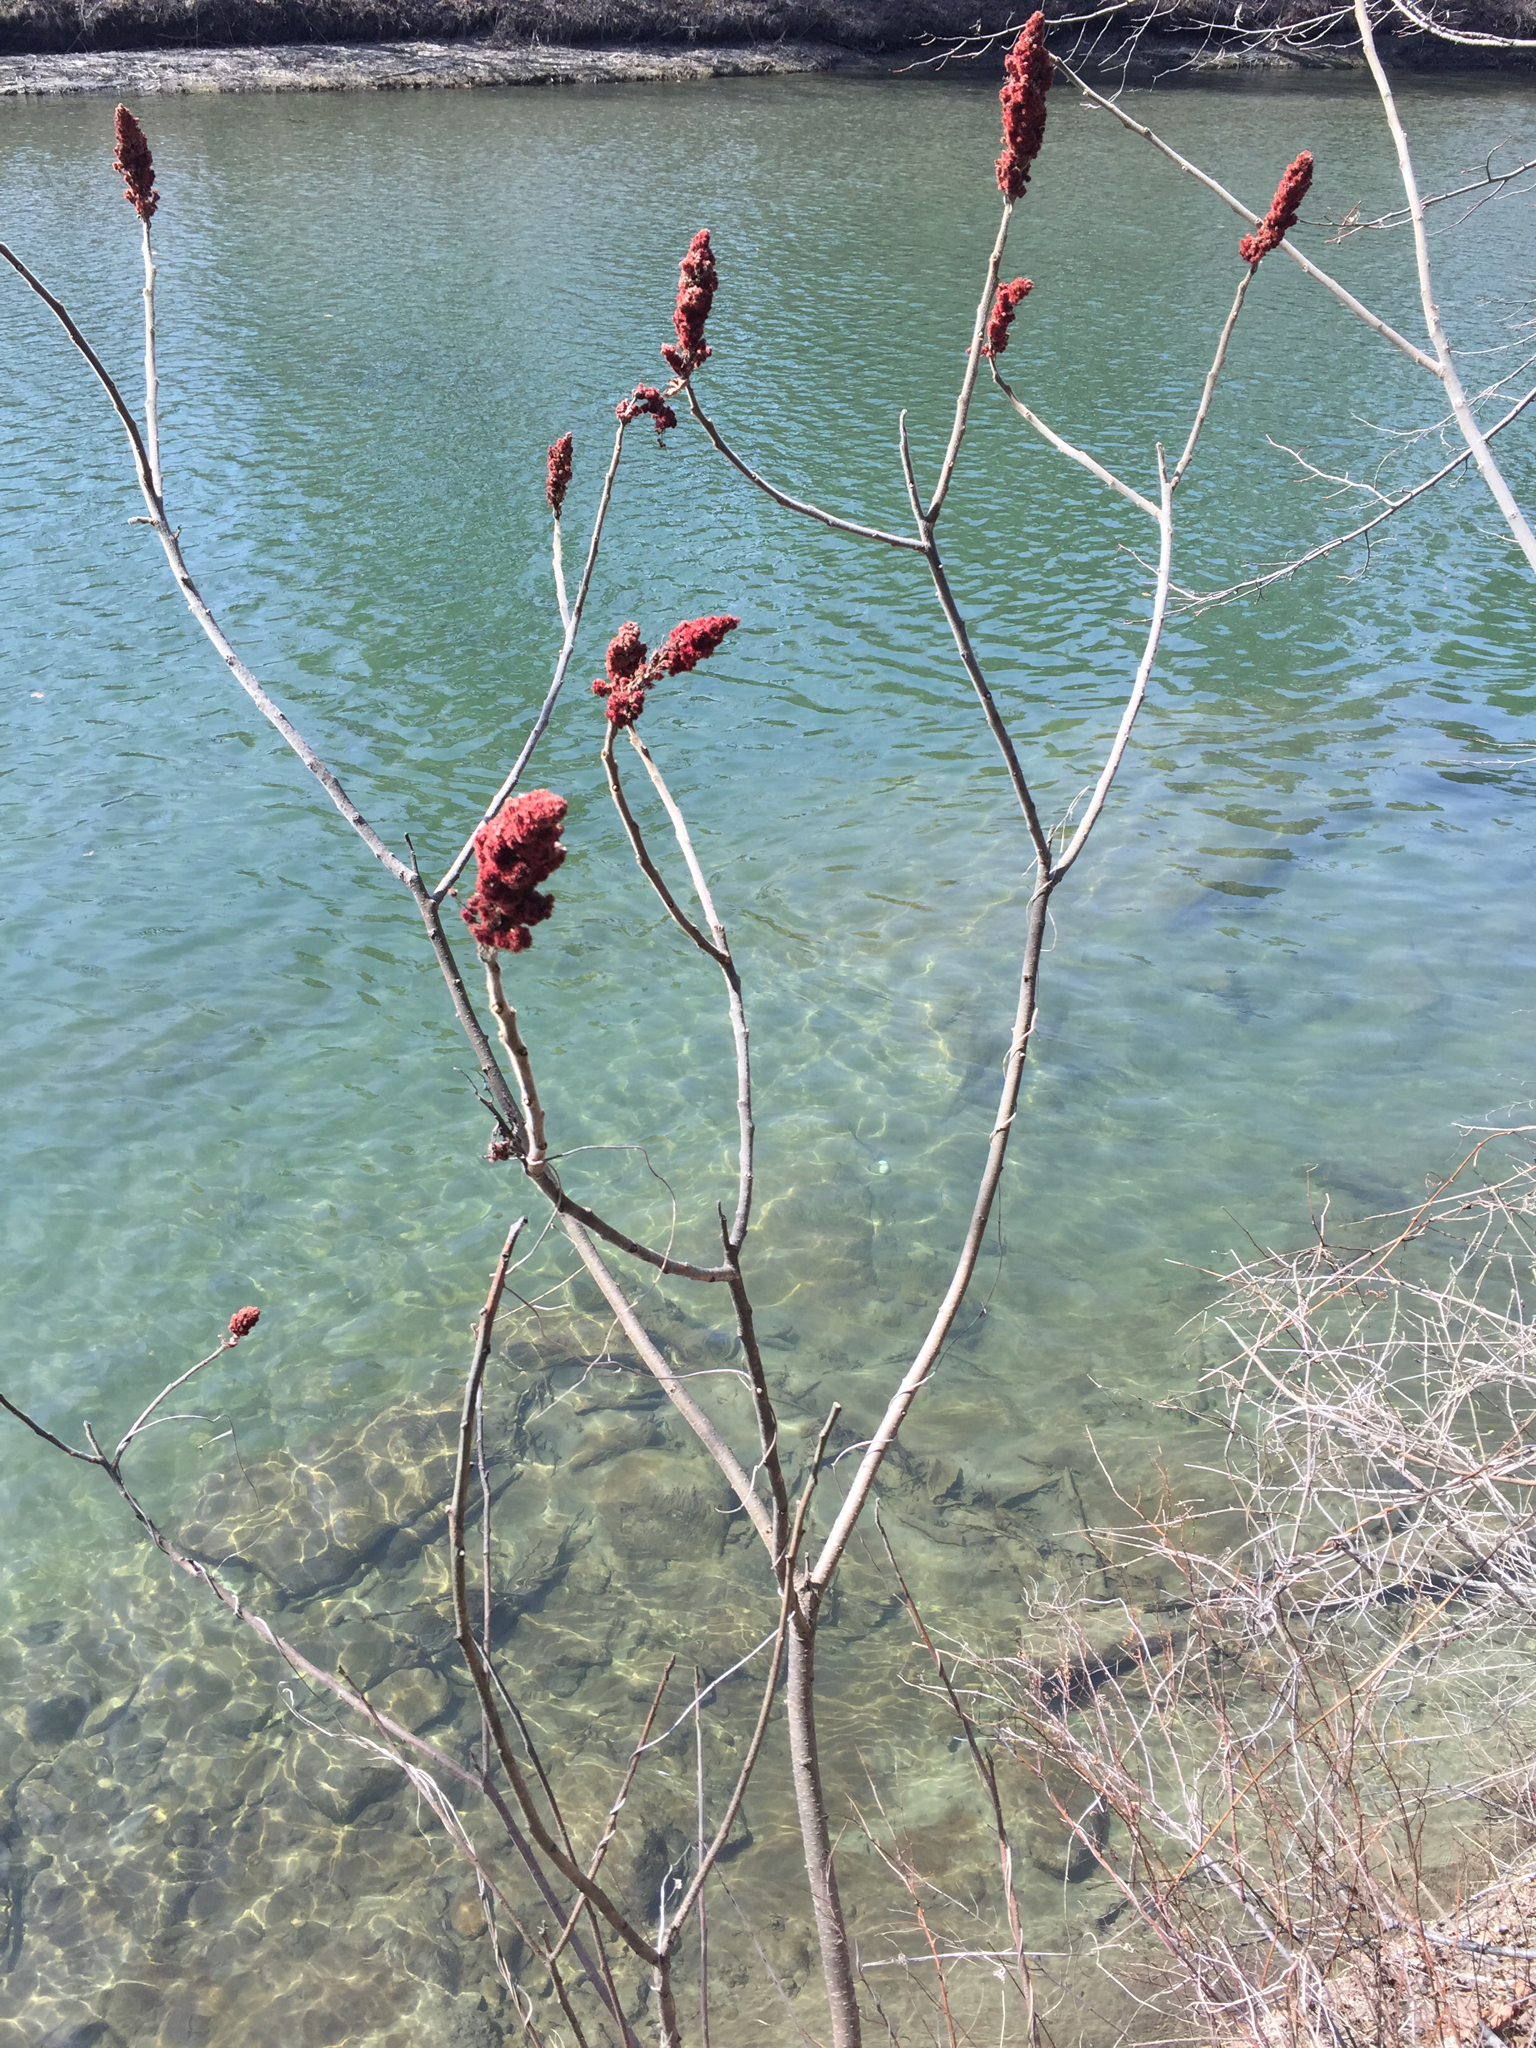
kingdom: Plantae
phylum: Tracheophyta
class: Magnoliopsida
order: Sapindales
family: Anacardiaceae
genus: Rhus
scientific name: Rhus typhina
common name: Staghorn sumac
